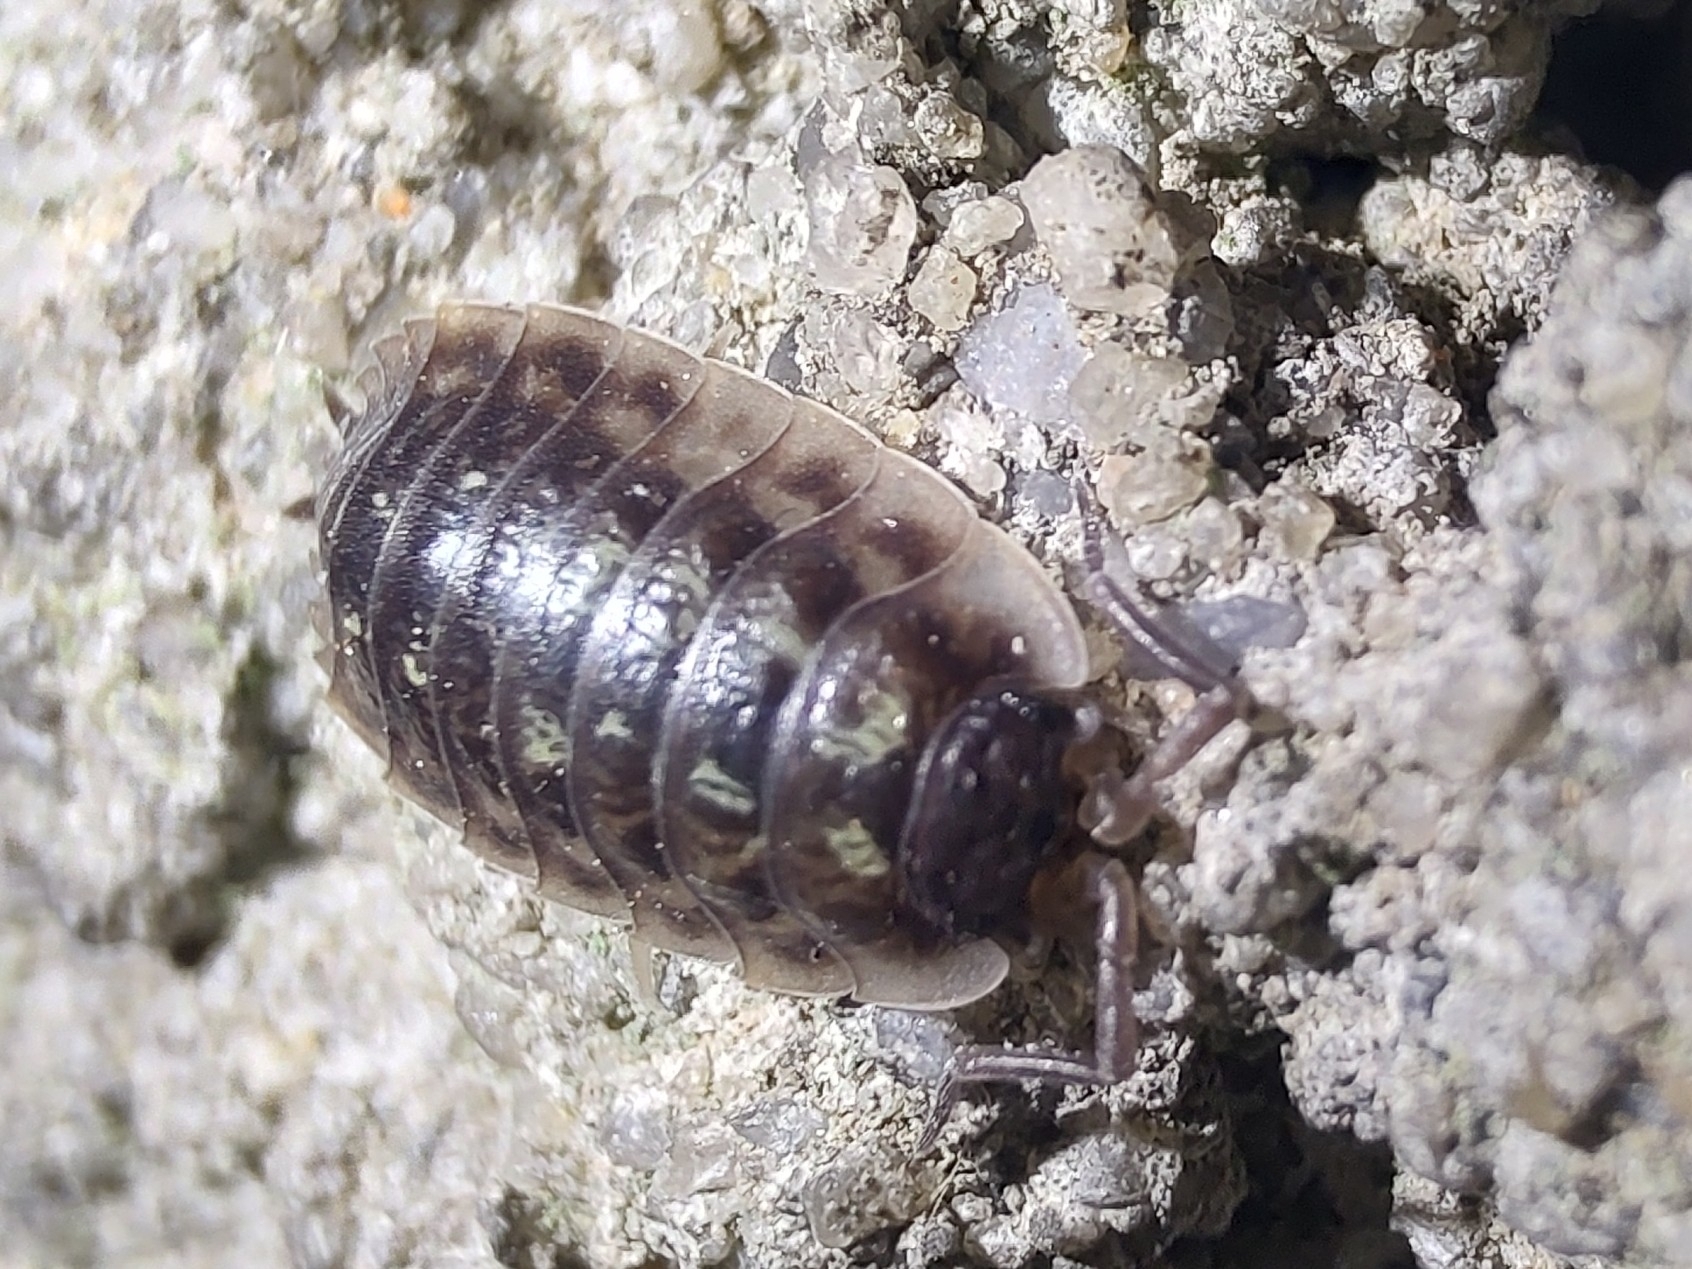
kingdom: Animalia
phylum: Arthropoda
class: Malacostraca
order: Isopoda
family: Oniscidae
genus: Oniscus
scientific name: Oniscus asellus
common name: Common shiny woodlouse
